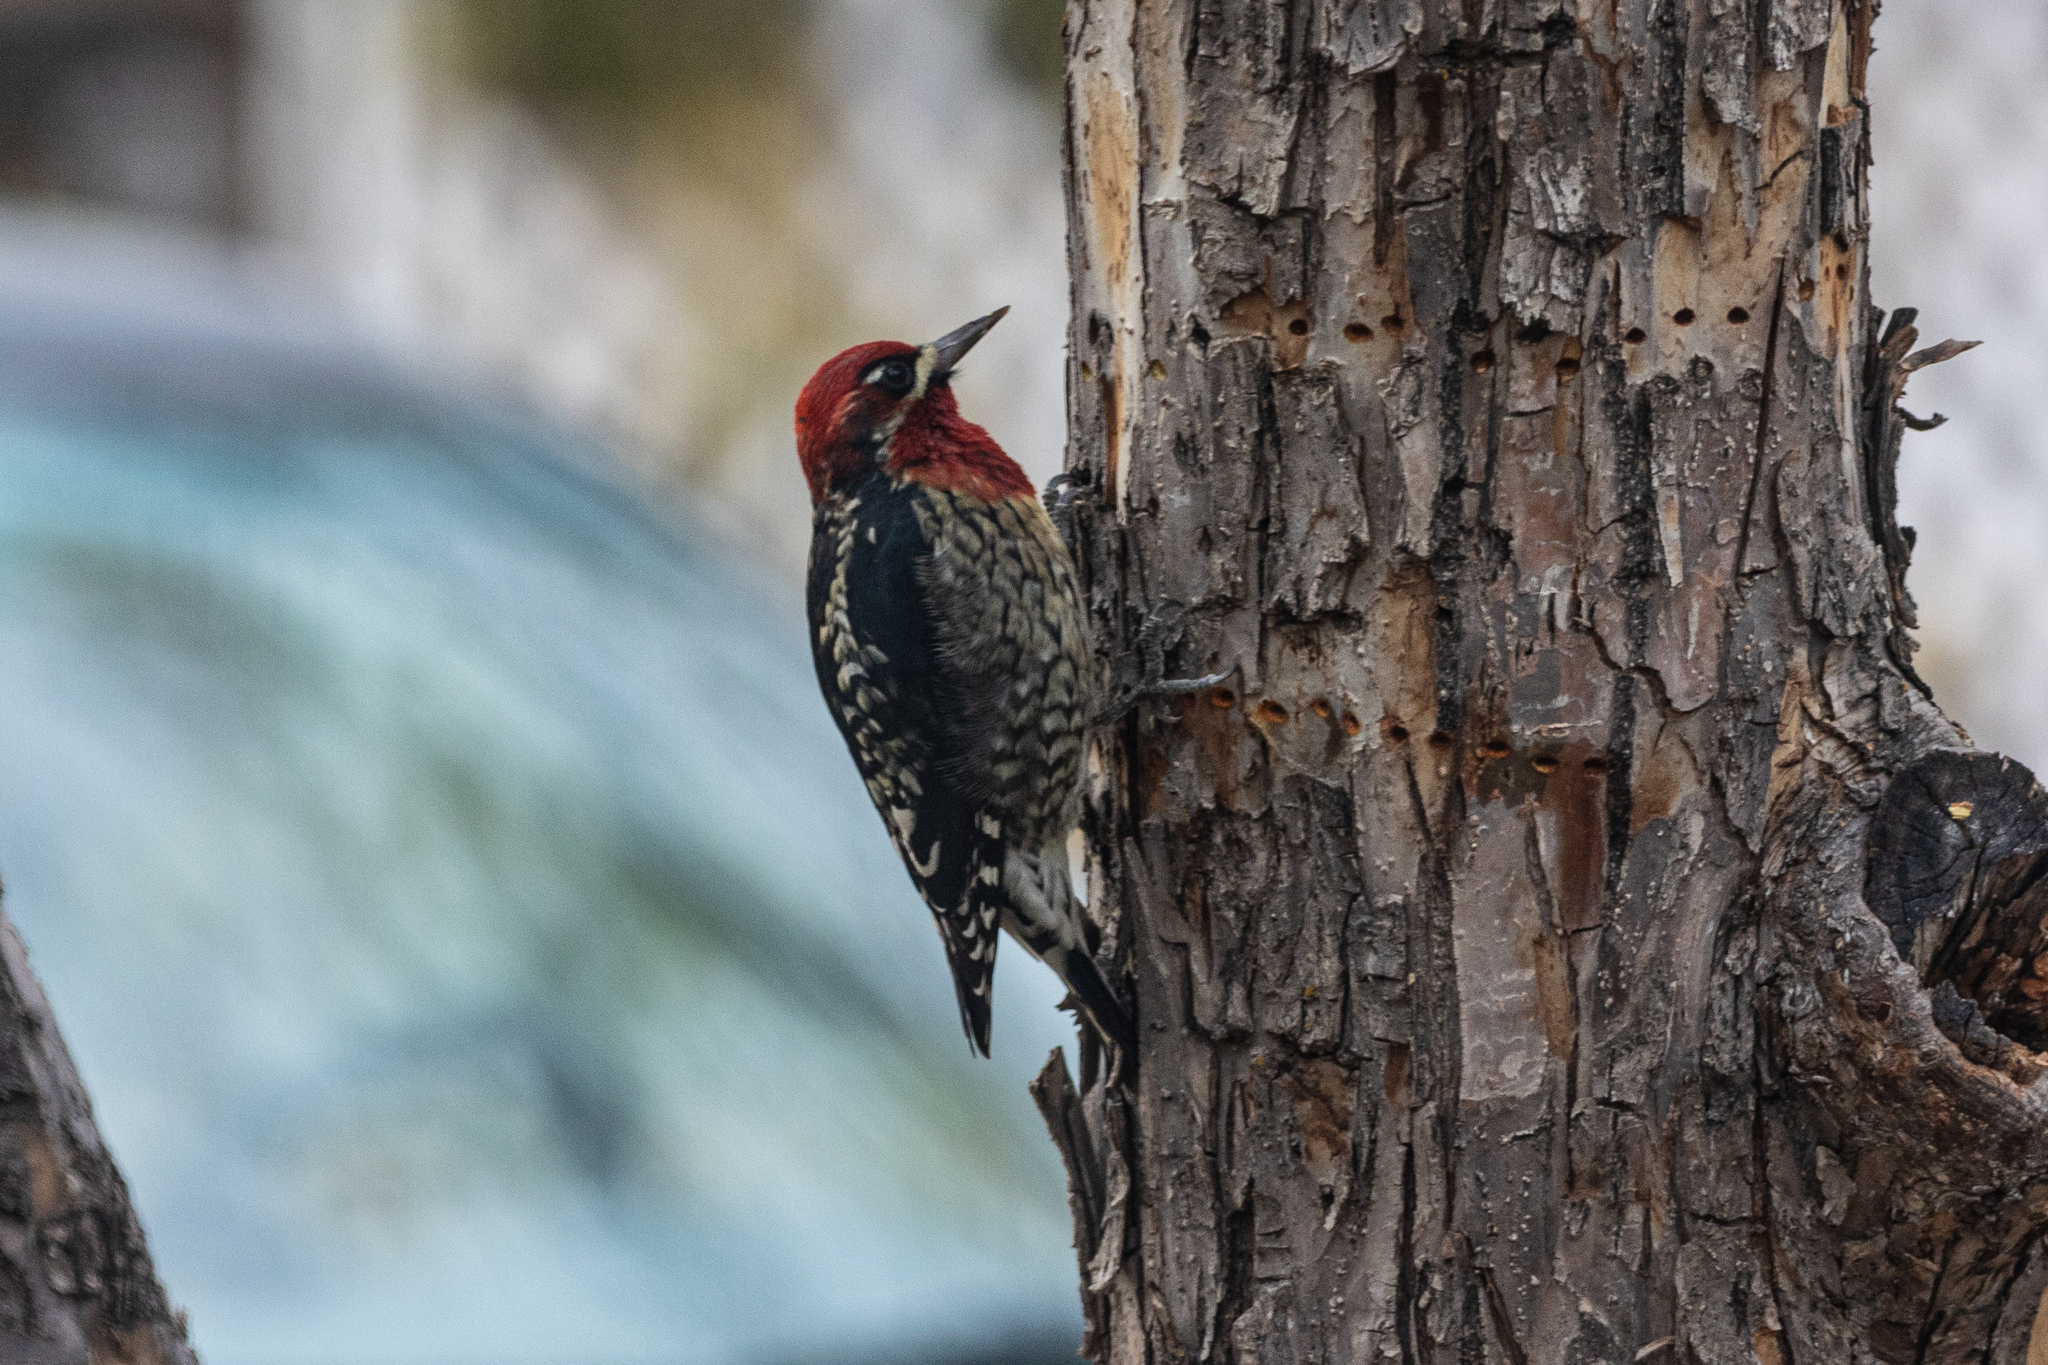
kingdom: Animalia
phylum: Chordata
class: Aves
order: Piciformes
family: Picidae
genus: Sphyrapicus
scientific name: Sphyrapicus ruber
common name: Red-breasted sapsucker
